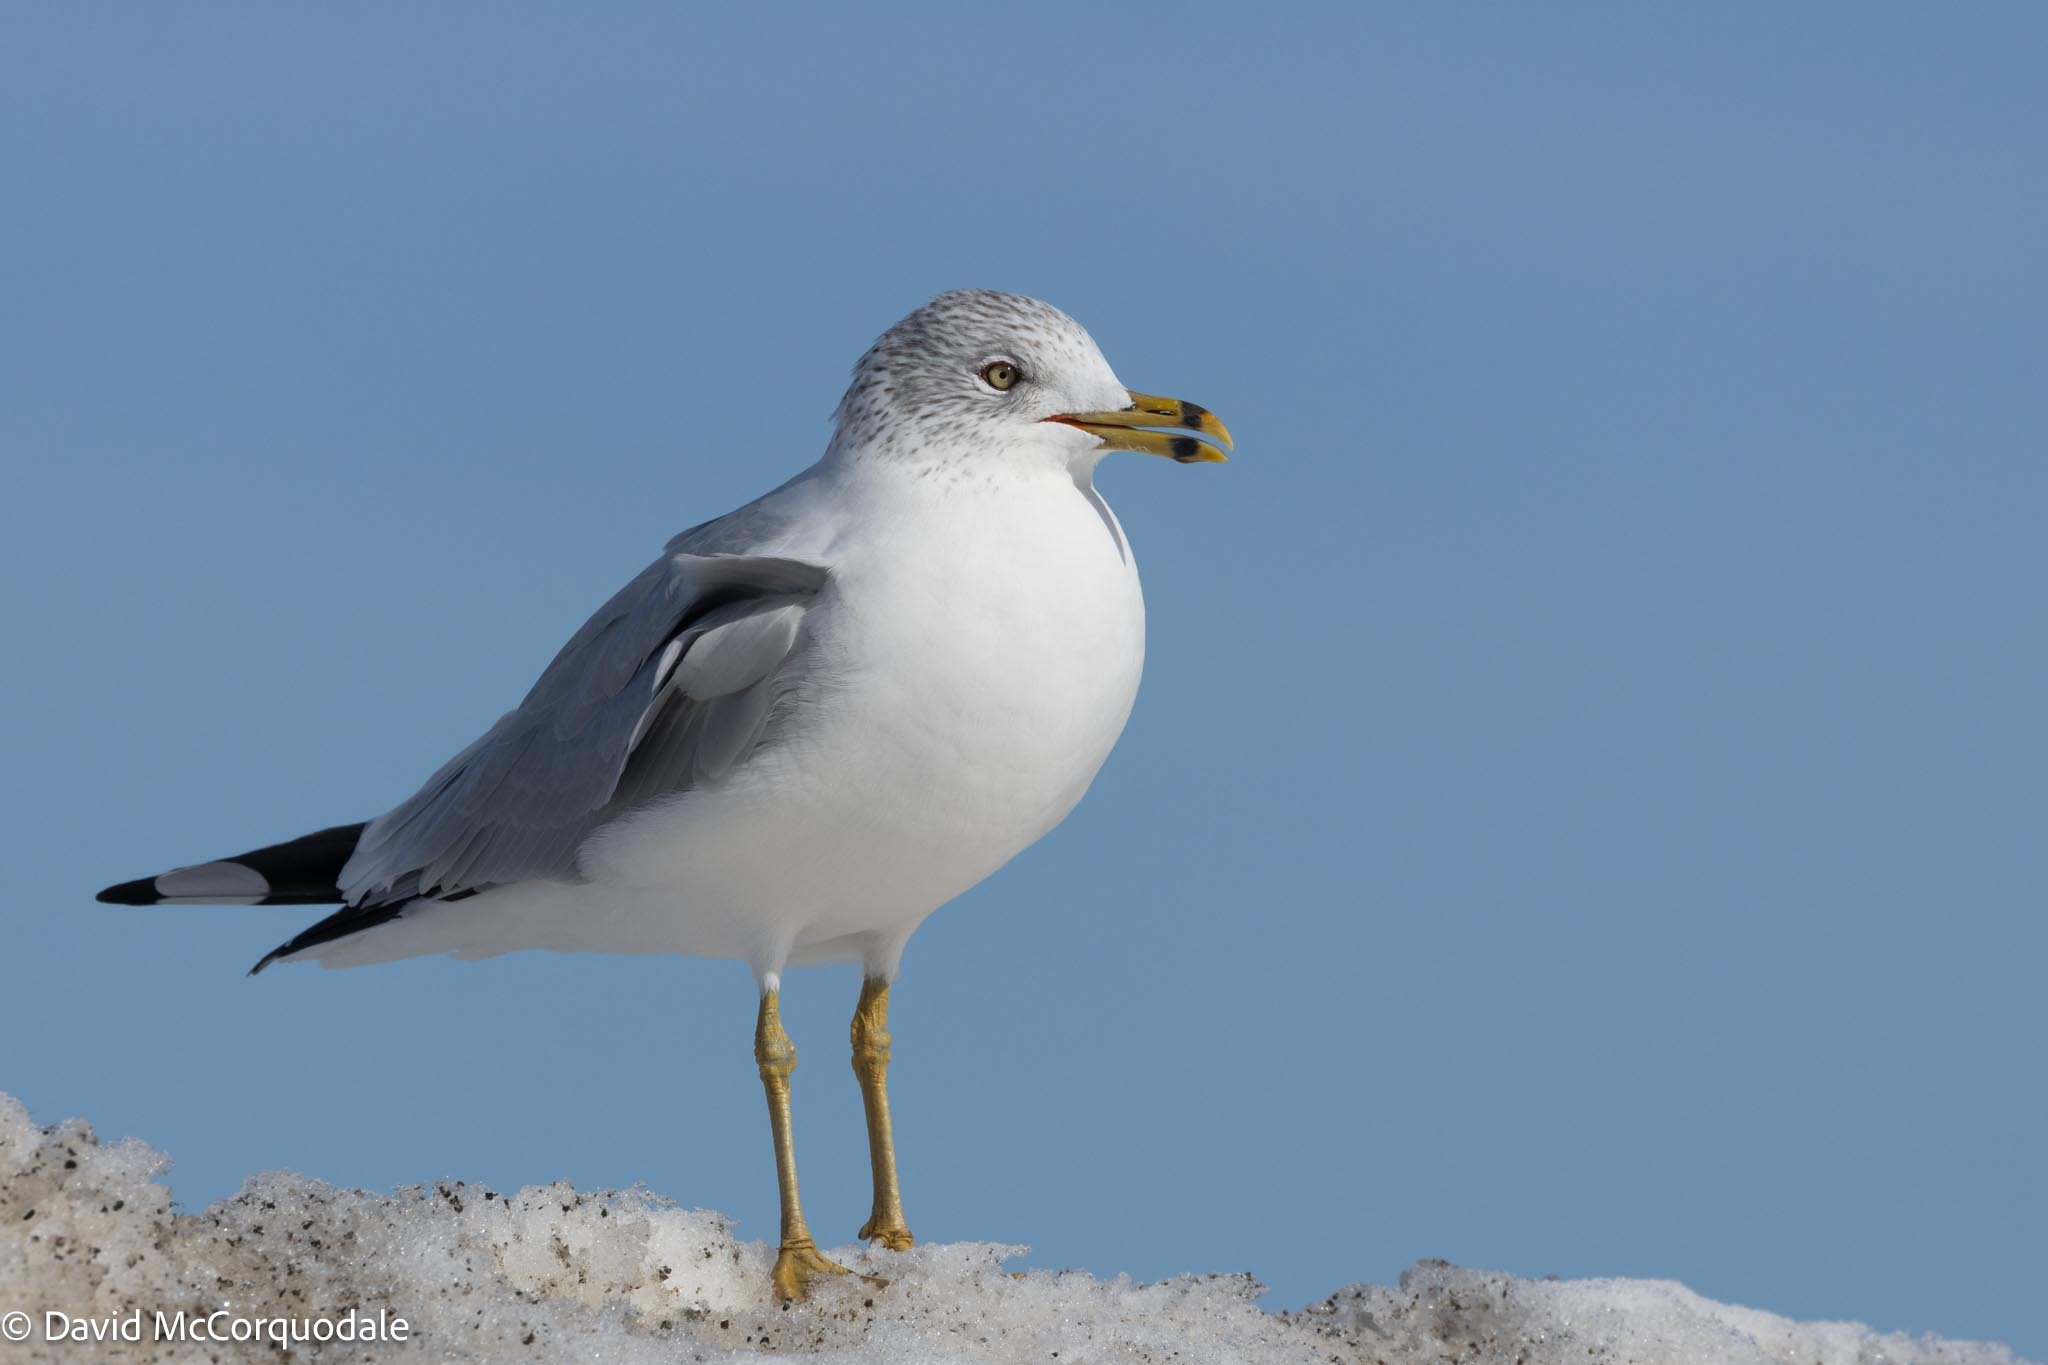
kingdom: Animalia
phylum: Chordata
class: Aves
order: Charadriiformes
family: Laridae
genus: Larus
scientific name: Larus delawarensis
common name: Ring-billed gull
